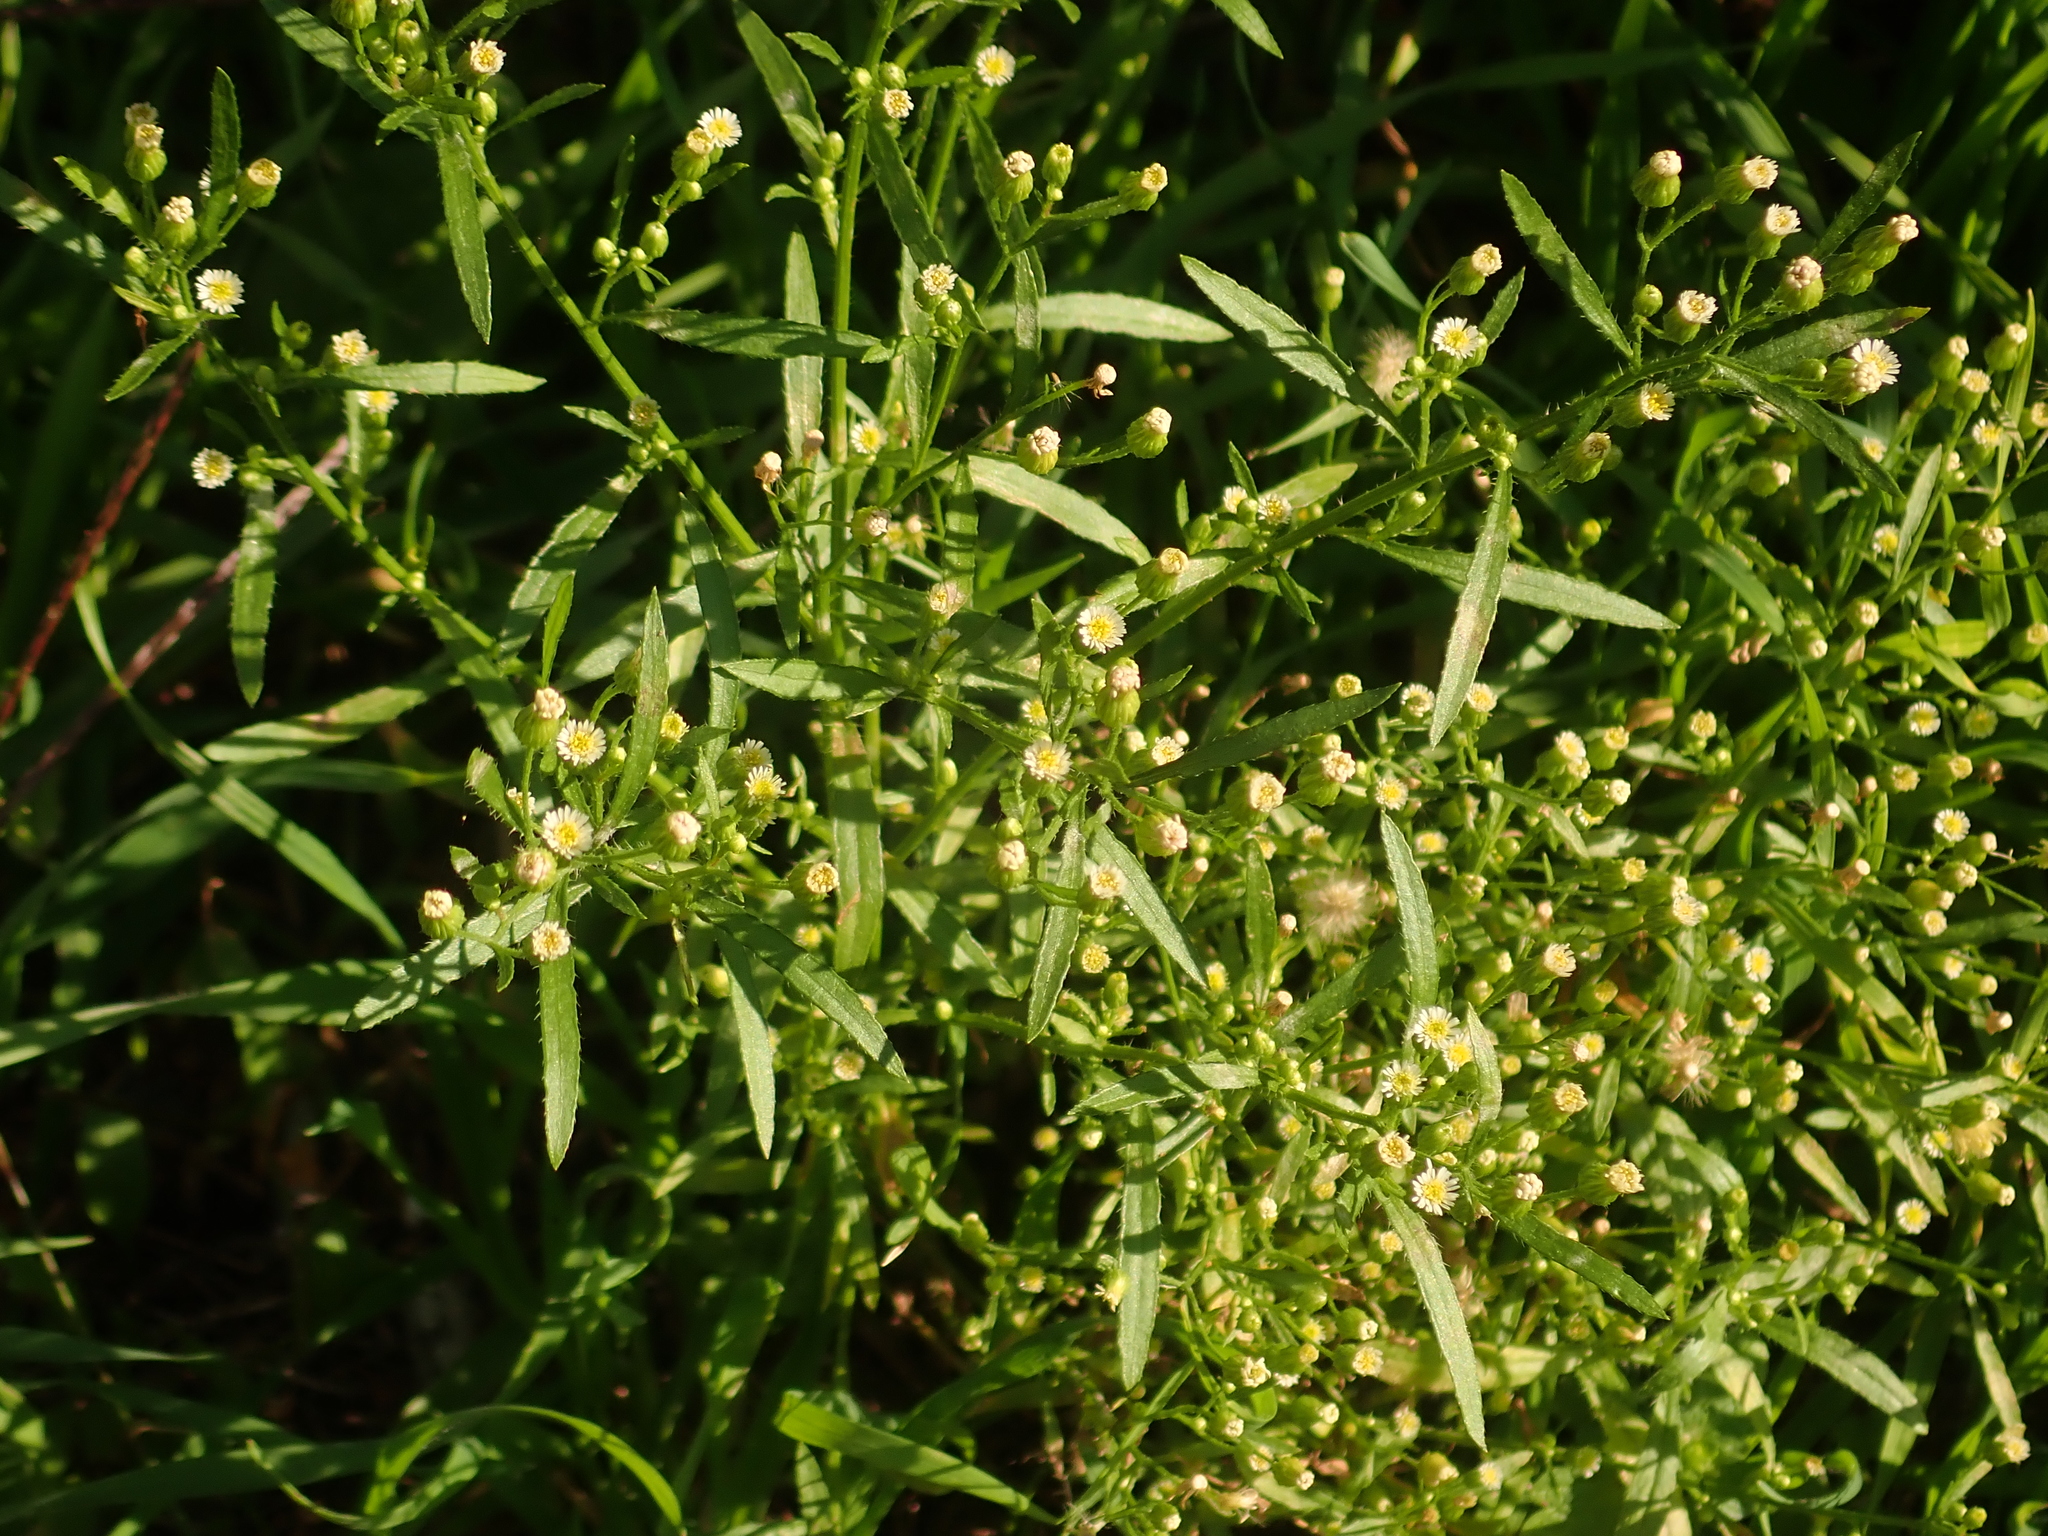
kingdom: Plantae
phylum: Tracheophyta
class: Magnoliopsida
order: Asterales
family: Asteraceae
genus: Erigeron
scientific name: Erigeron canadensis
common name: Canadian fleabane
